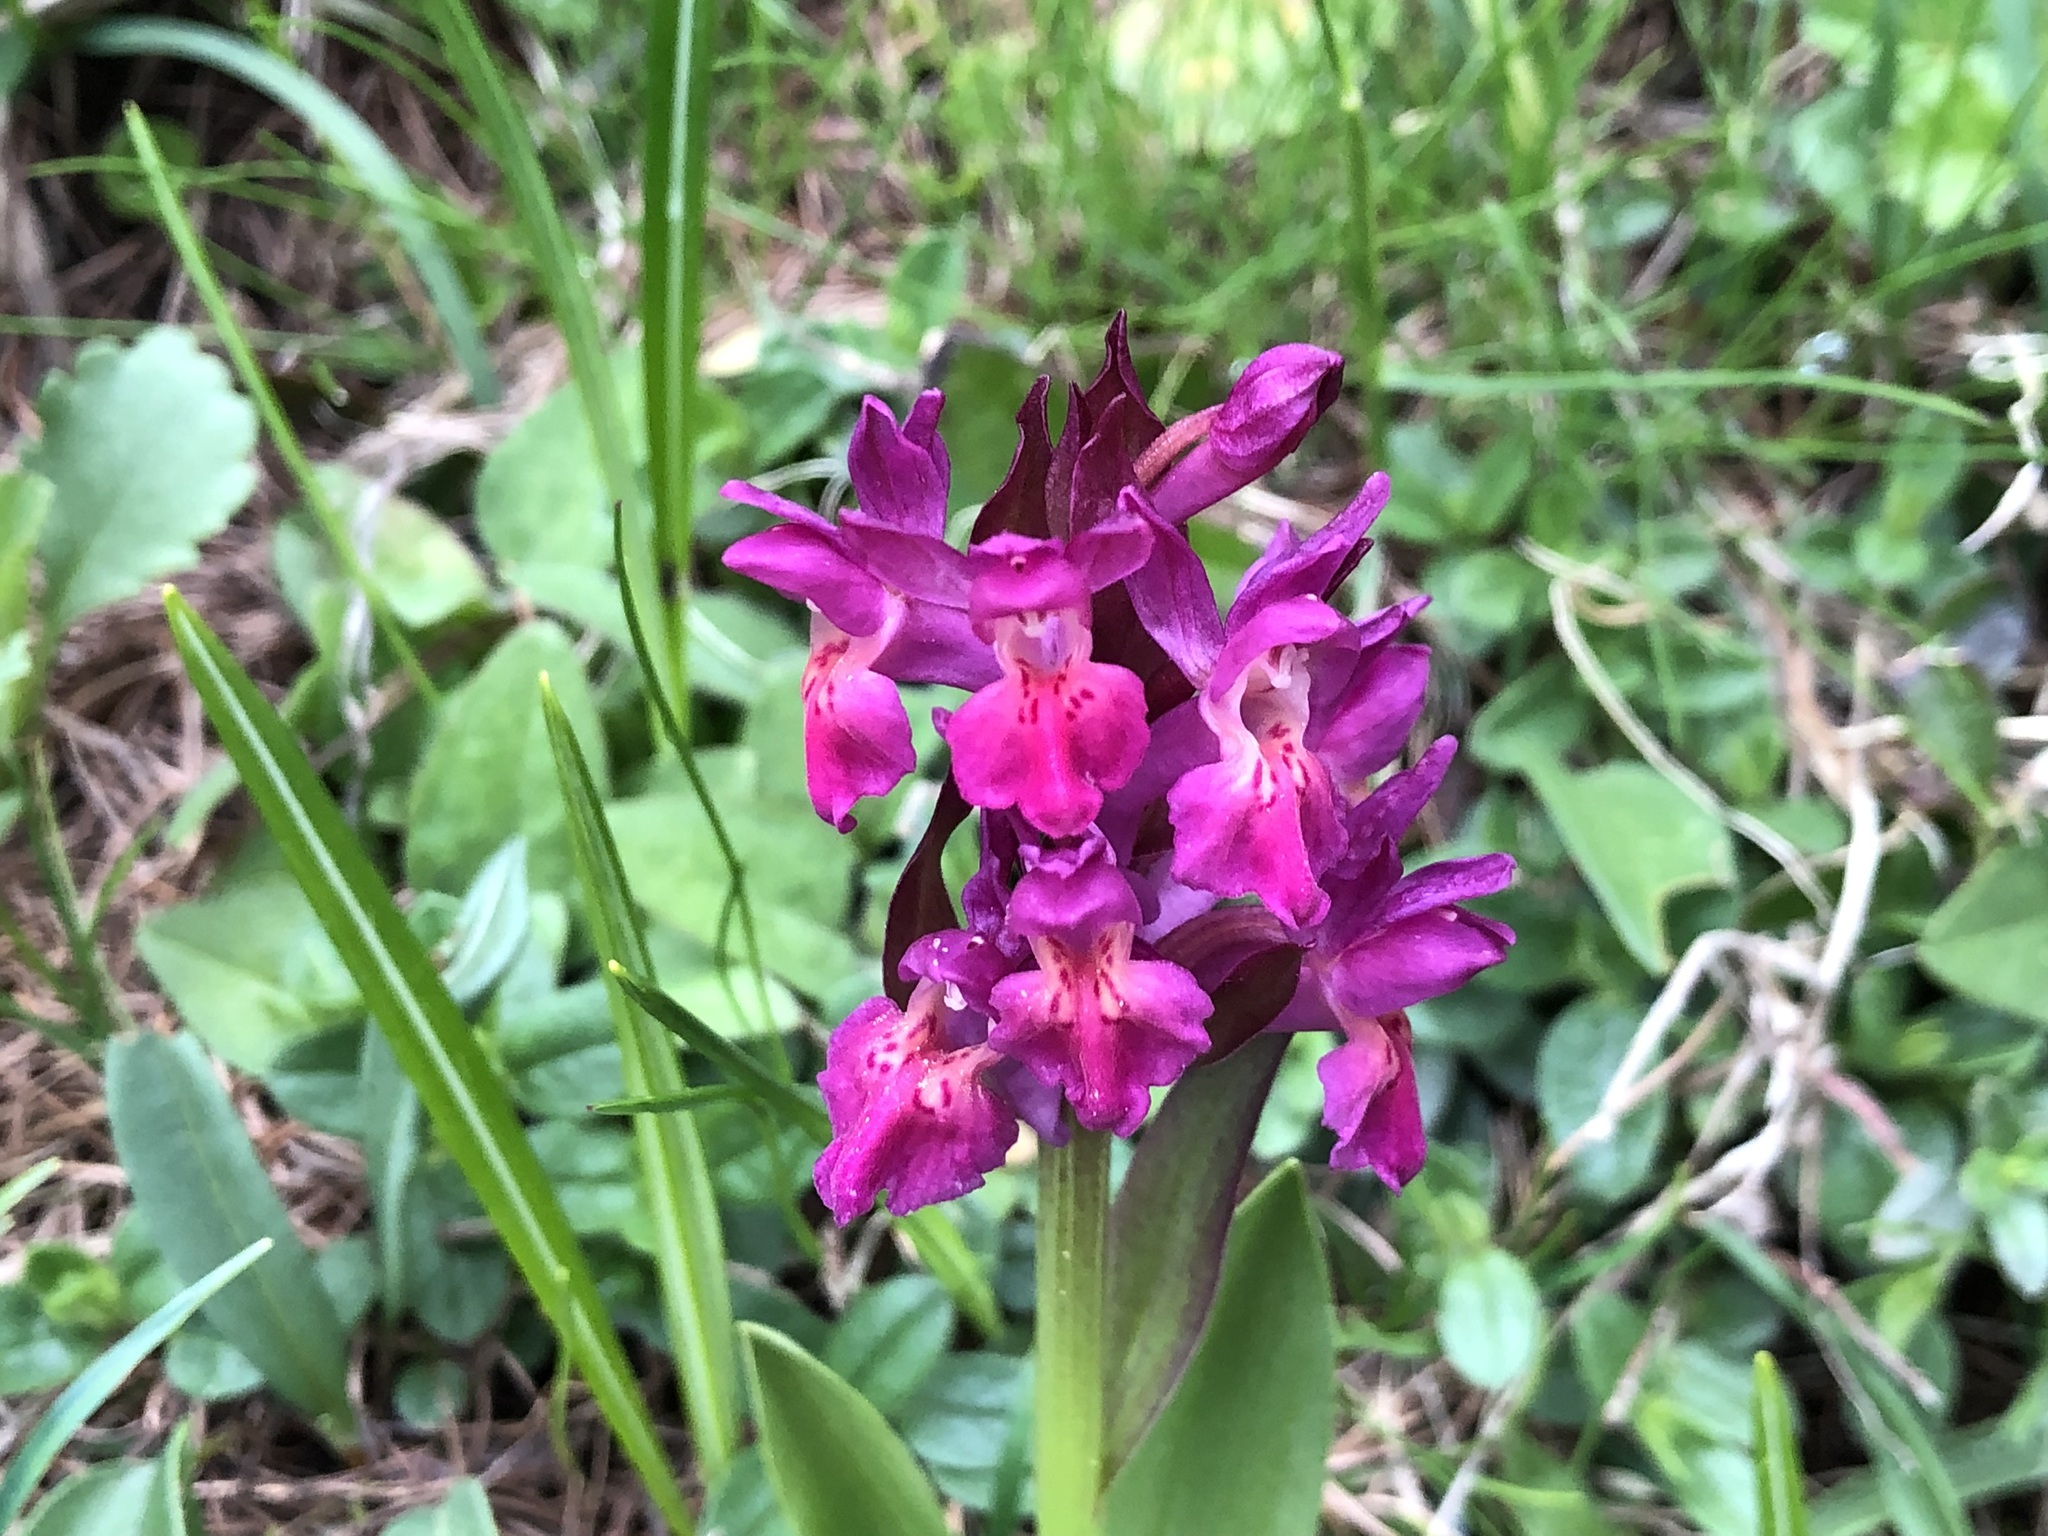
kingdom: Plantae
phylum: Tracheophyta
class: Liliopsida
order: Asparagales
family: Orchidaceae
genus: Dactylorhiza
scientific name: Dactylorhiza sambucina
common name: Elder-flowered orchid
